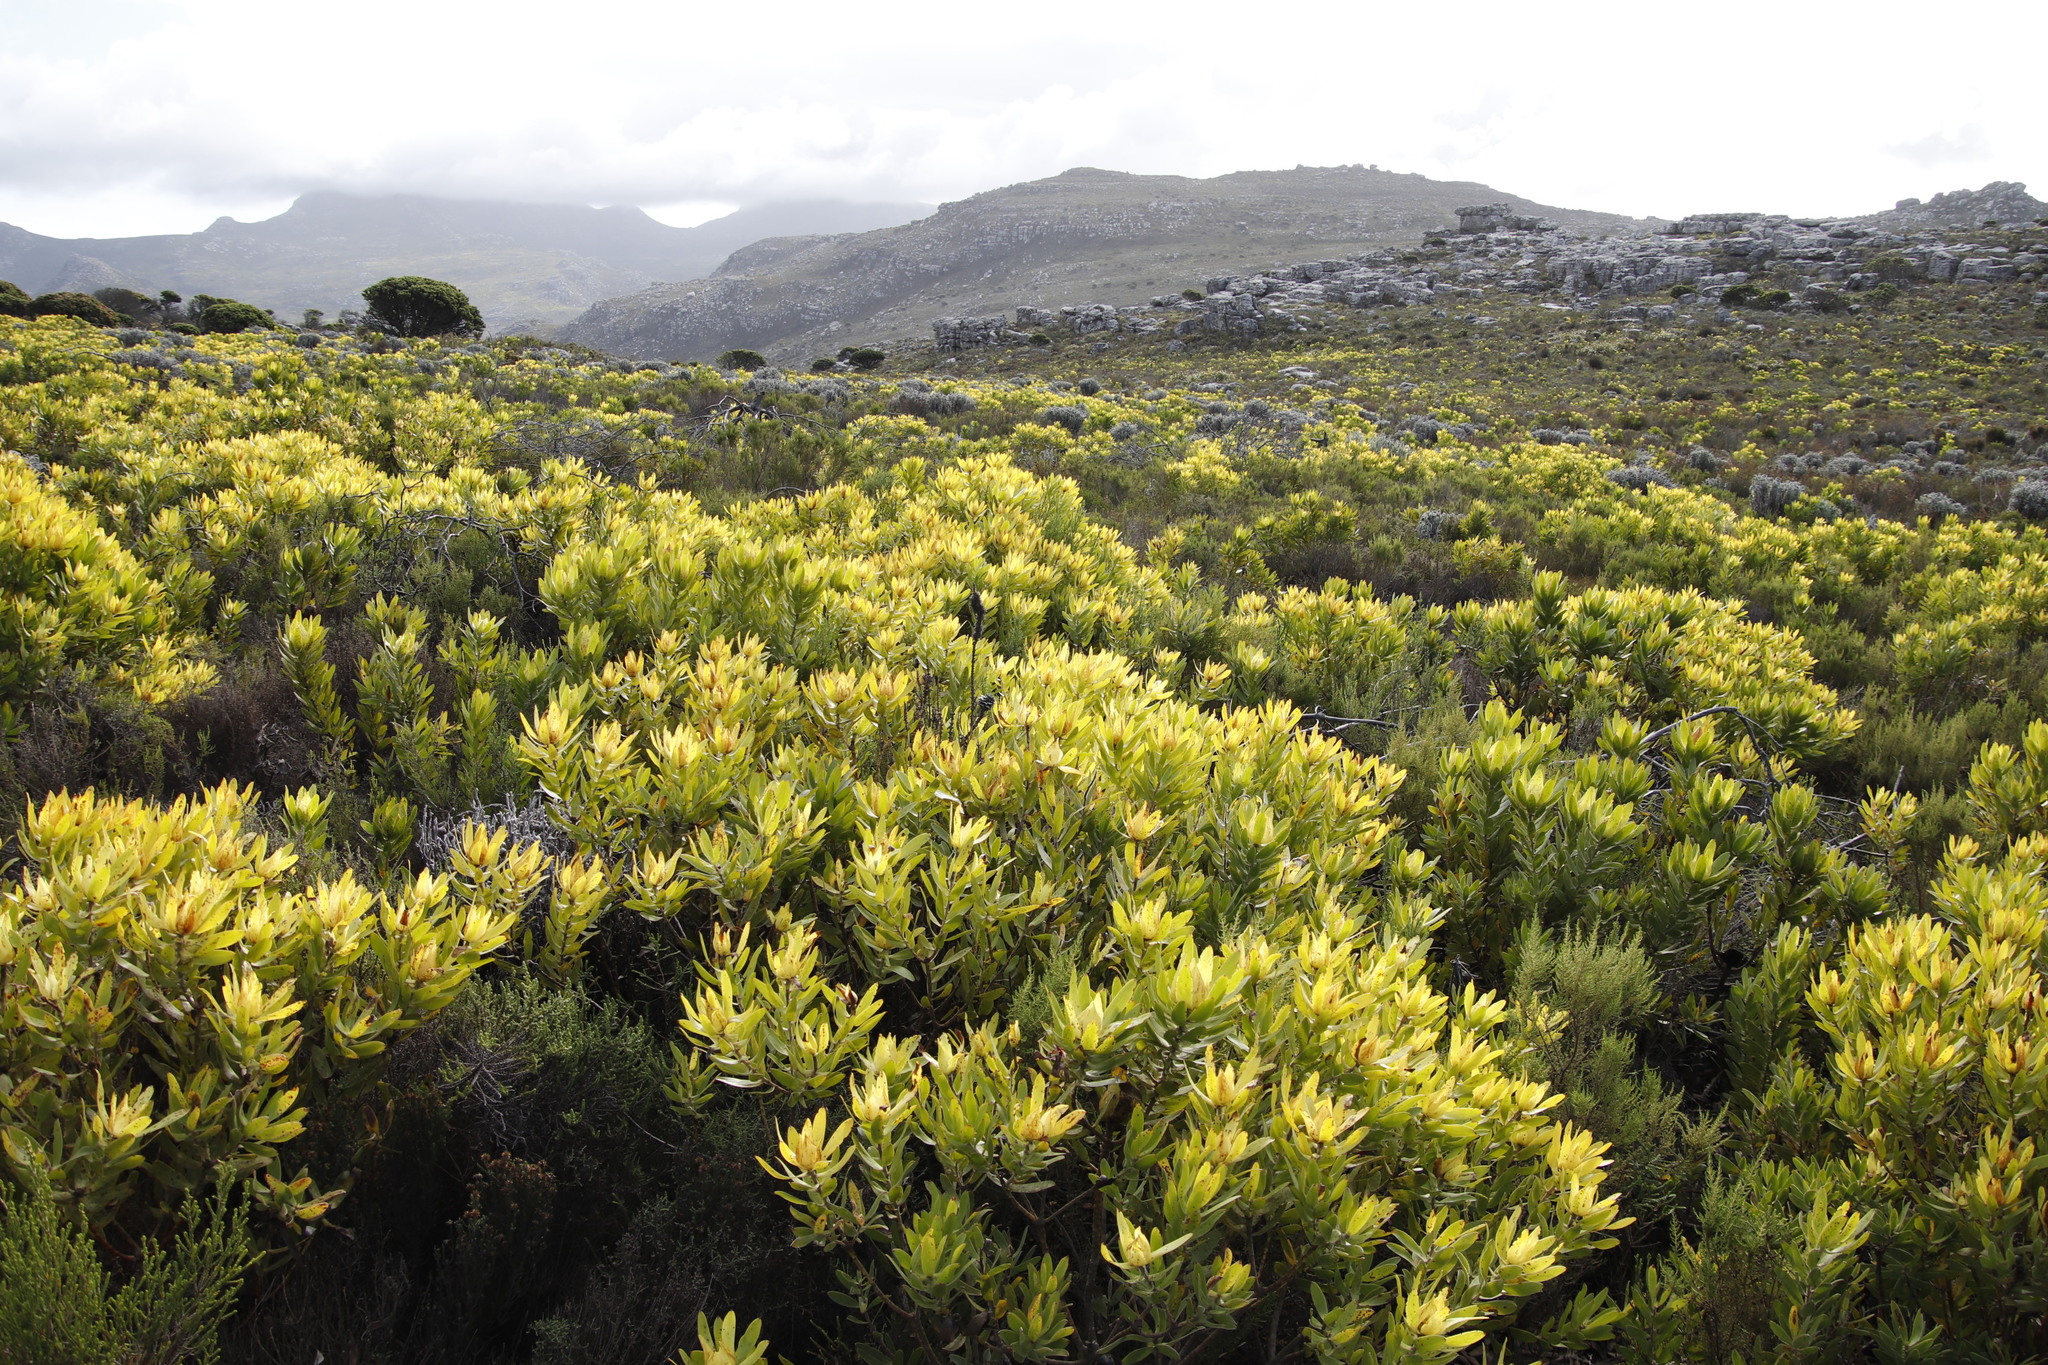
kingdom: Plantae
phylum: Tracheophyta
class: Magnoliopsida
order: Proteales
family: Proteaceae
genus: Leucadendron
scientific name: Leucadendron laureolum
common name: Golden sunshinebush
